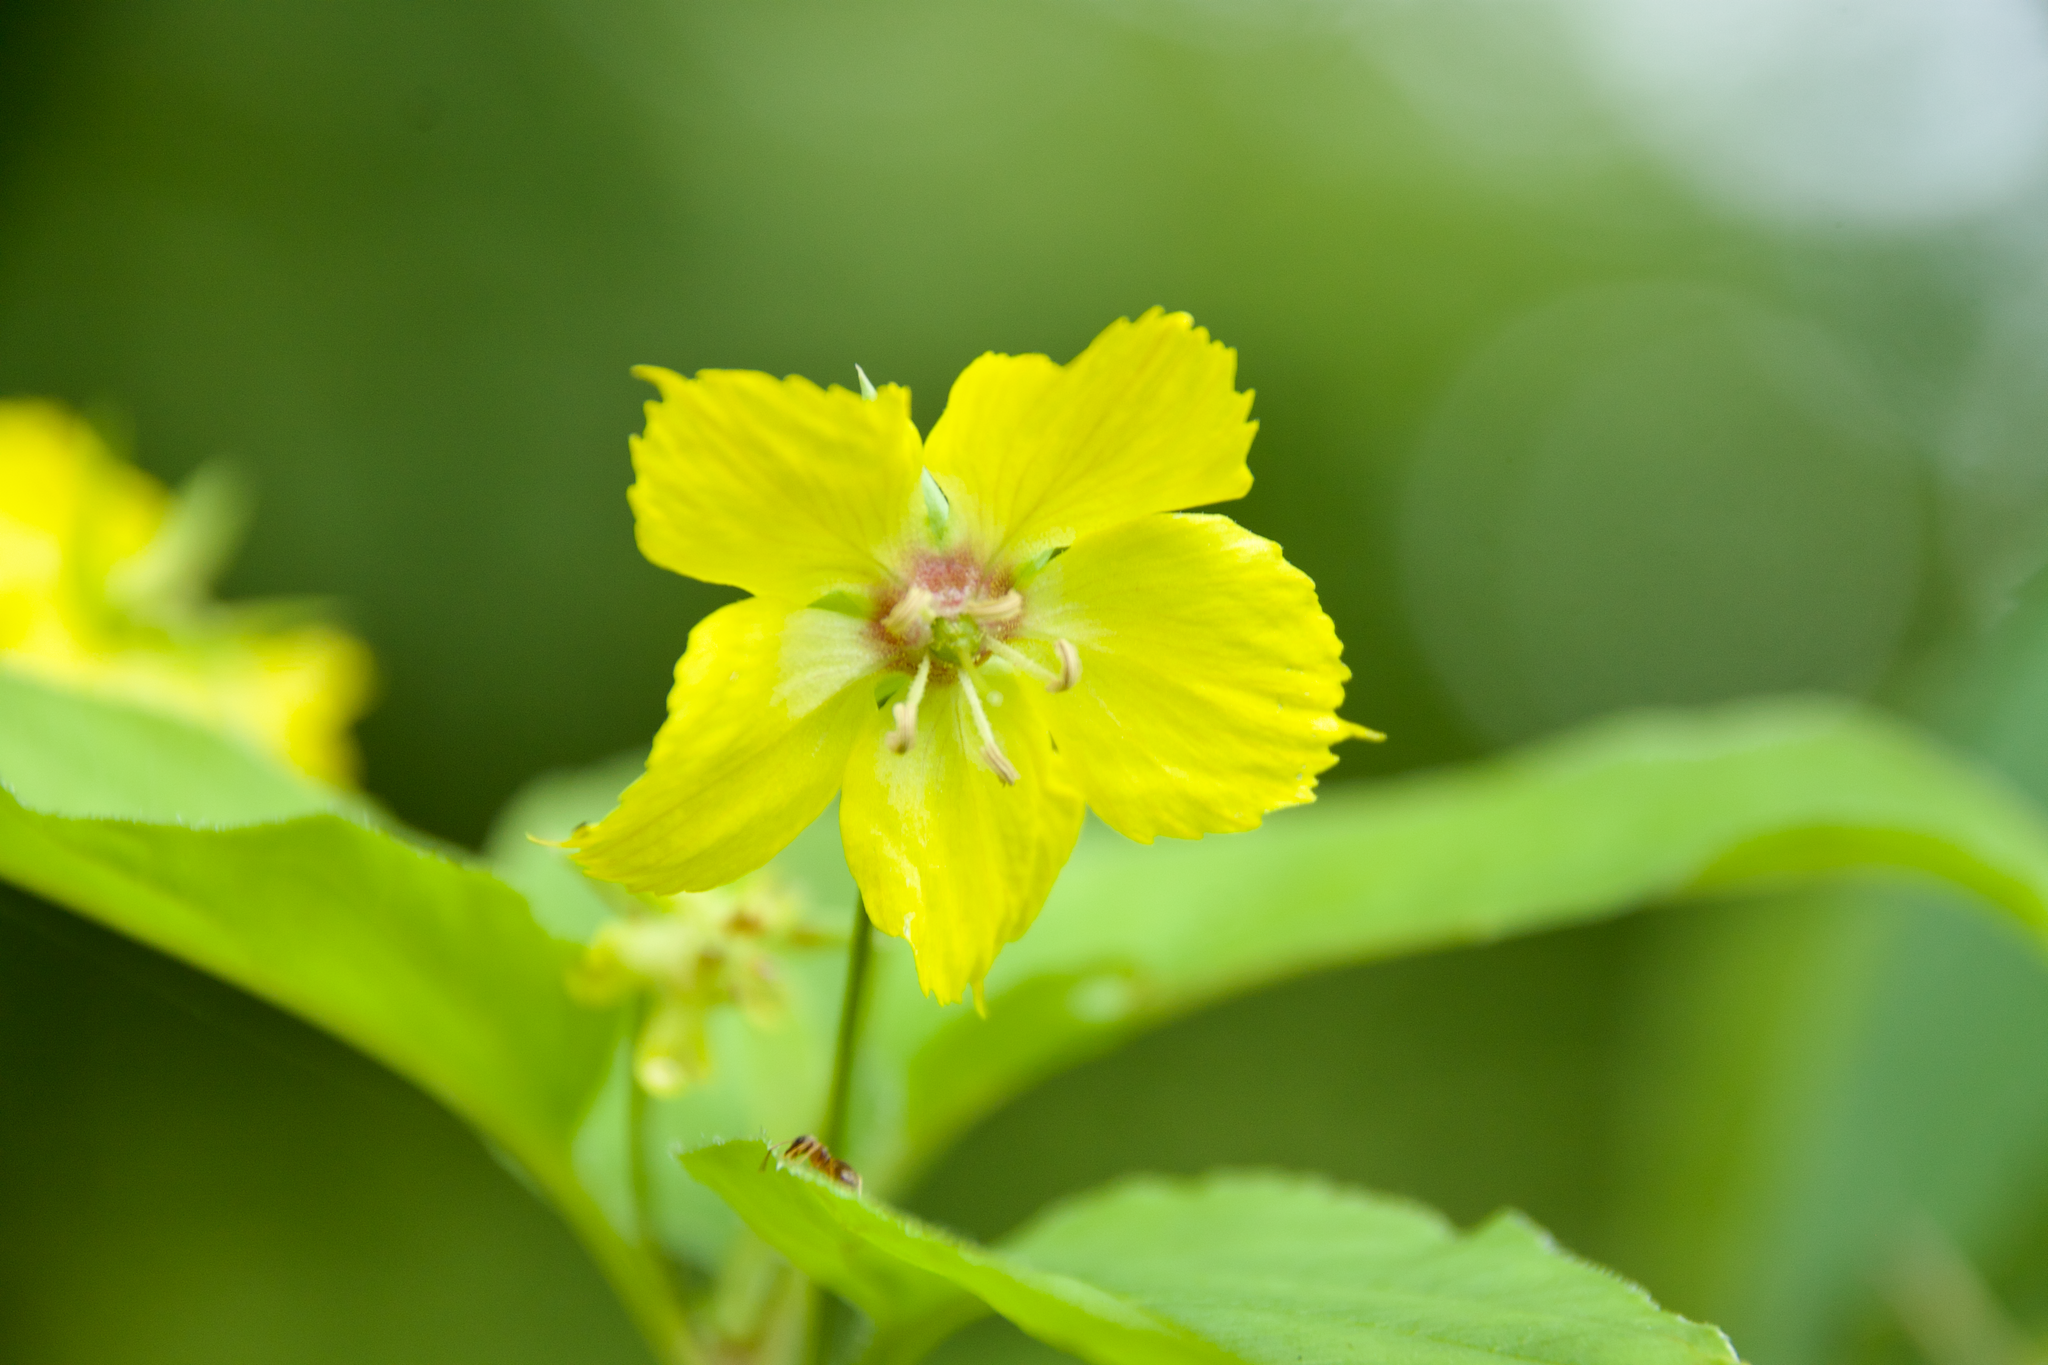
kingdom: Plantae
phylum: Tracheophyta
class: Magnoliopsida
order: Ericales
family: Primulaceae
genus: Lysimachia
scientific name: Lysimachia ciliata
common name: Fringed loosestrife
